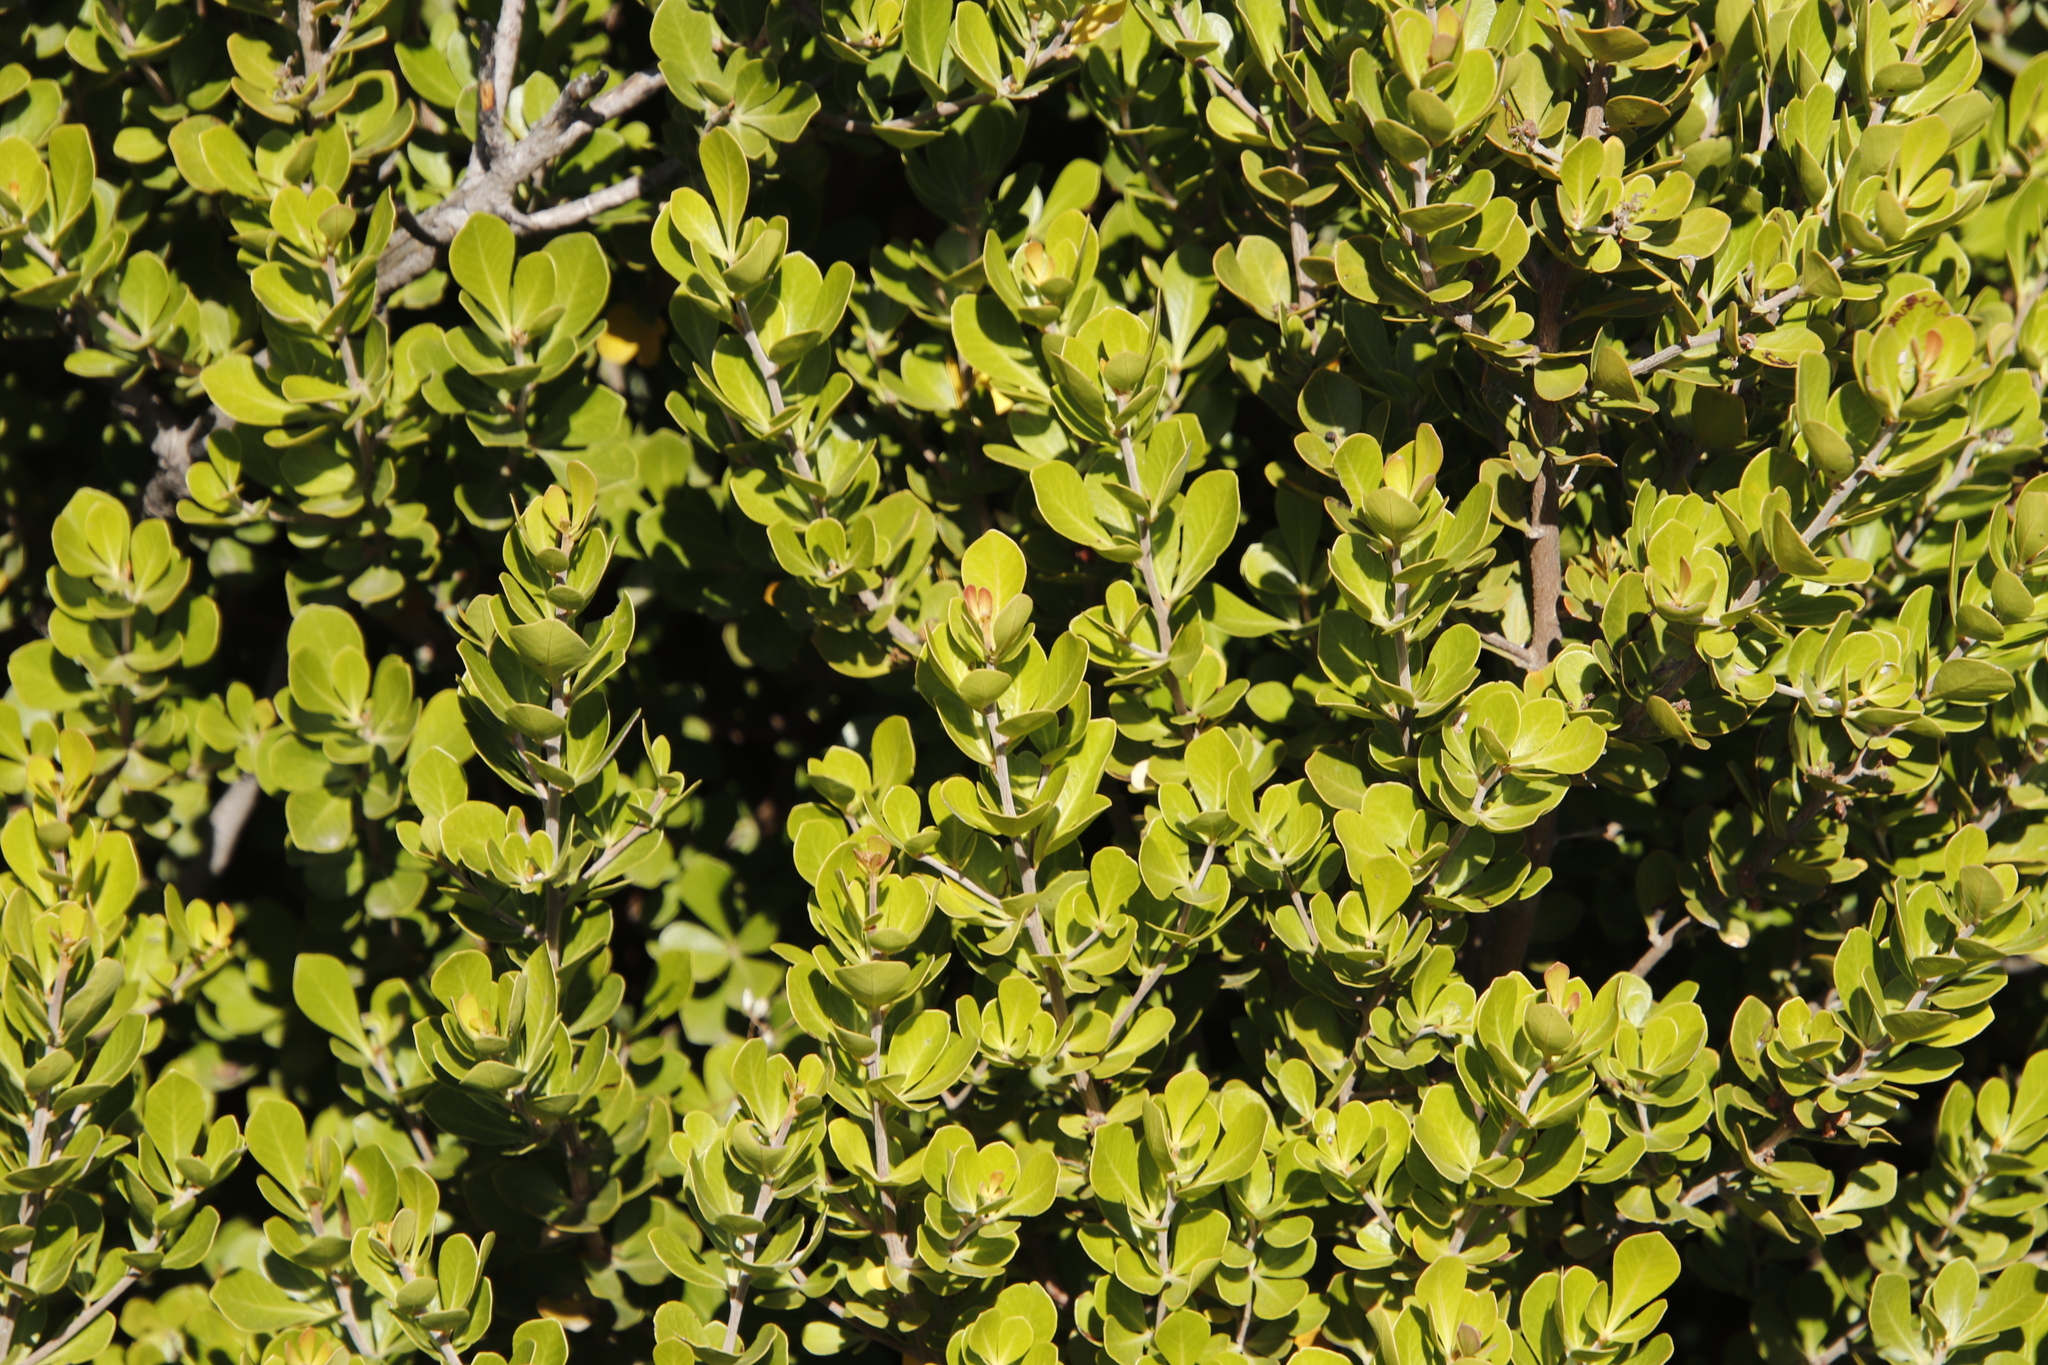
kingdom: Plantae
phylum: Tracheophyta
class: Magnoliopsida
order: Sapindales
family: Anacardiaceae
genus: Searsia
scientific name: Searsia lucida
